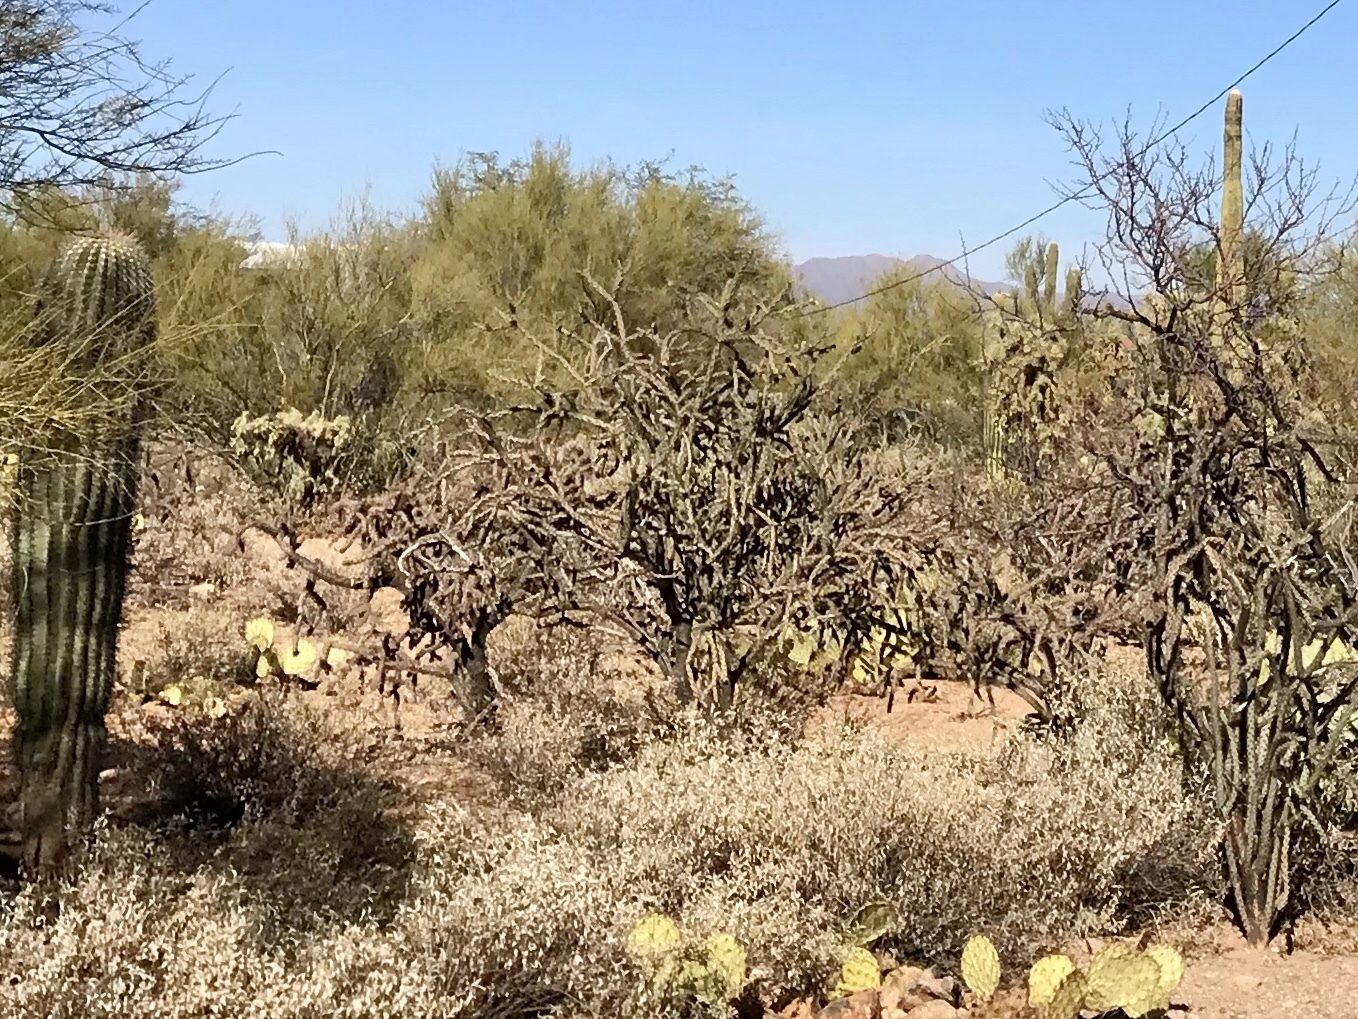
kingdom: Plantae
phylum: Tracheophyta
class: Magnoliopsida
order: Caryophyllales
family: Cactaceae
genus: Cylindropuntia
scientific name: Cylindropuntia thurberi
